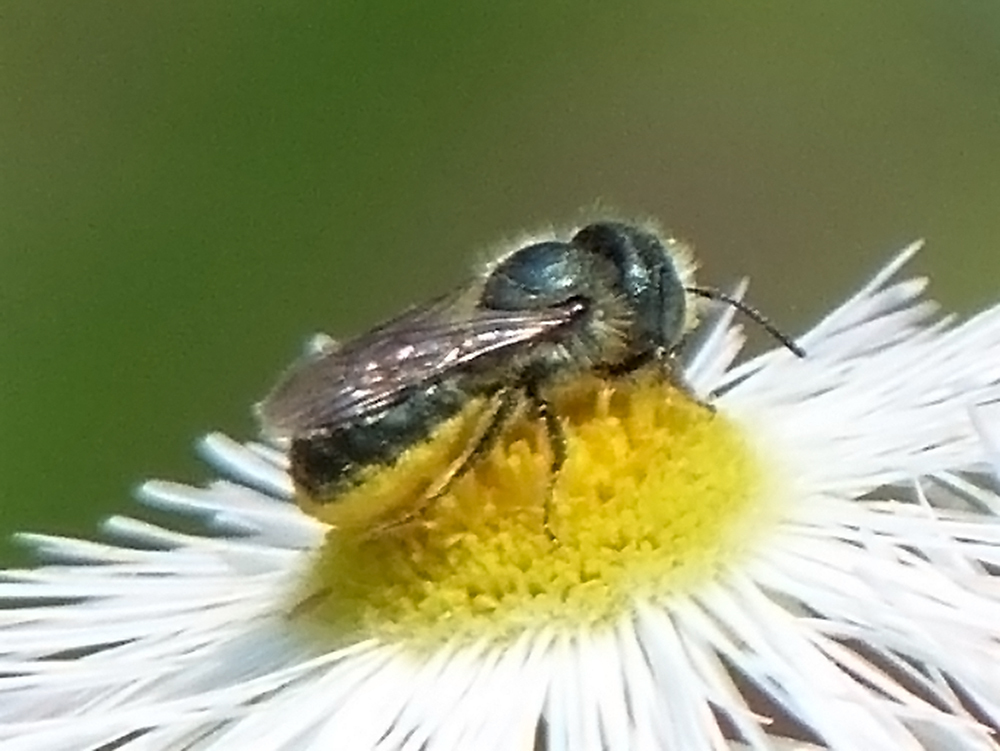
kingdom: Animalia
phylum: Arthropoda
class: Insecta
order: Hymenoptera
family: Megachilidae
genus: Osmia
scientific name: Osmia georgica
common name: Georgia mason
